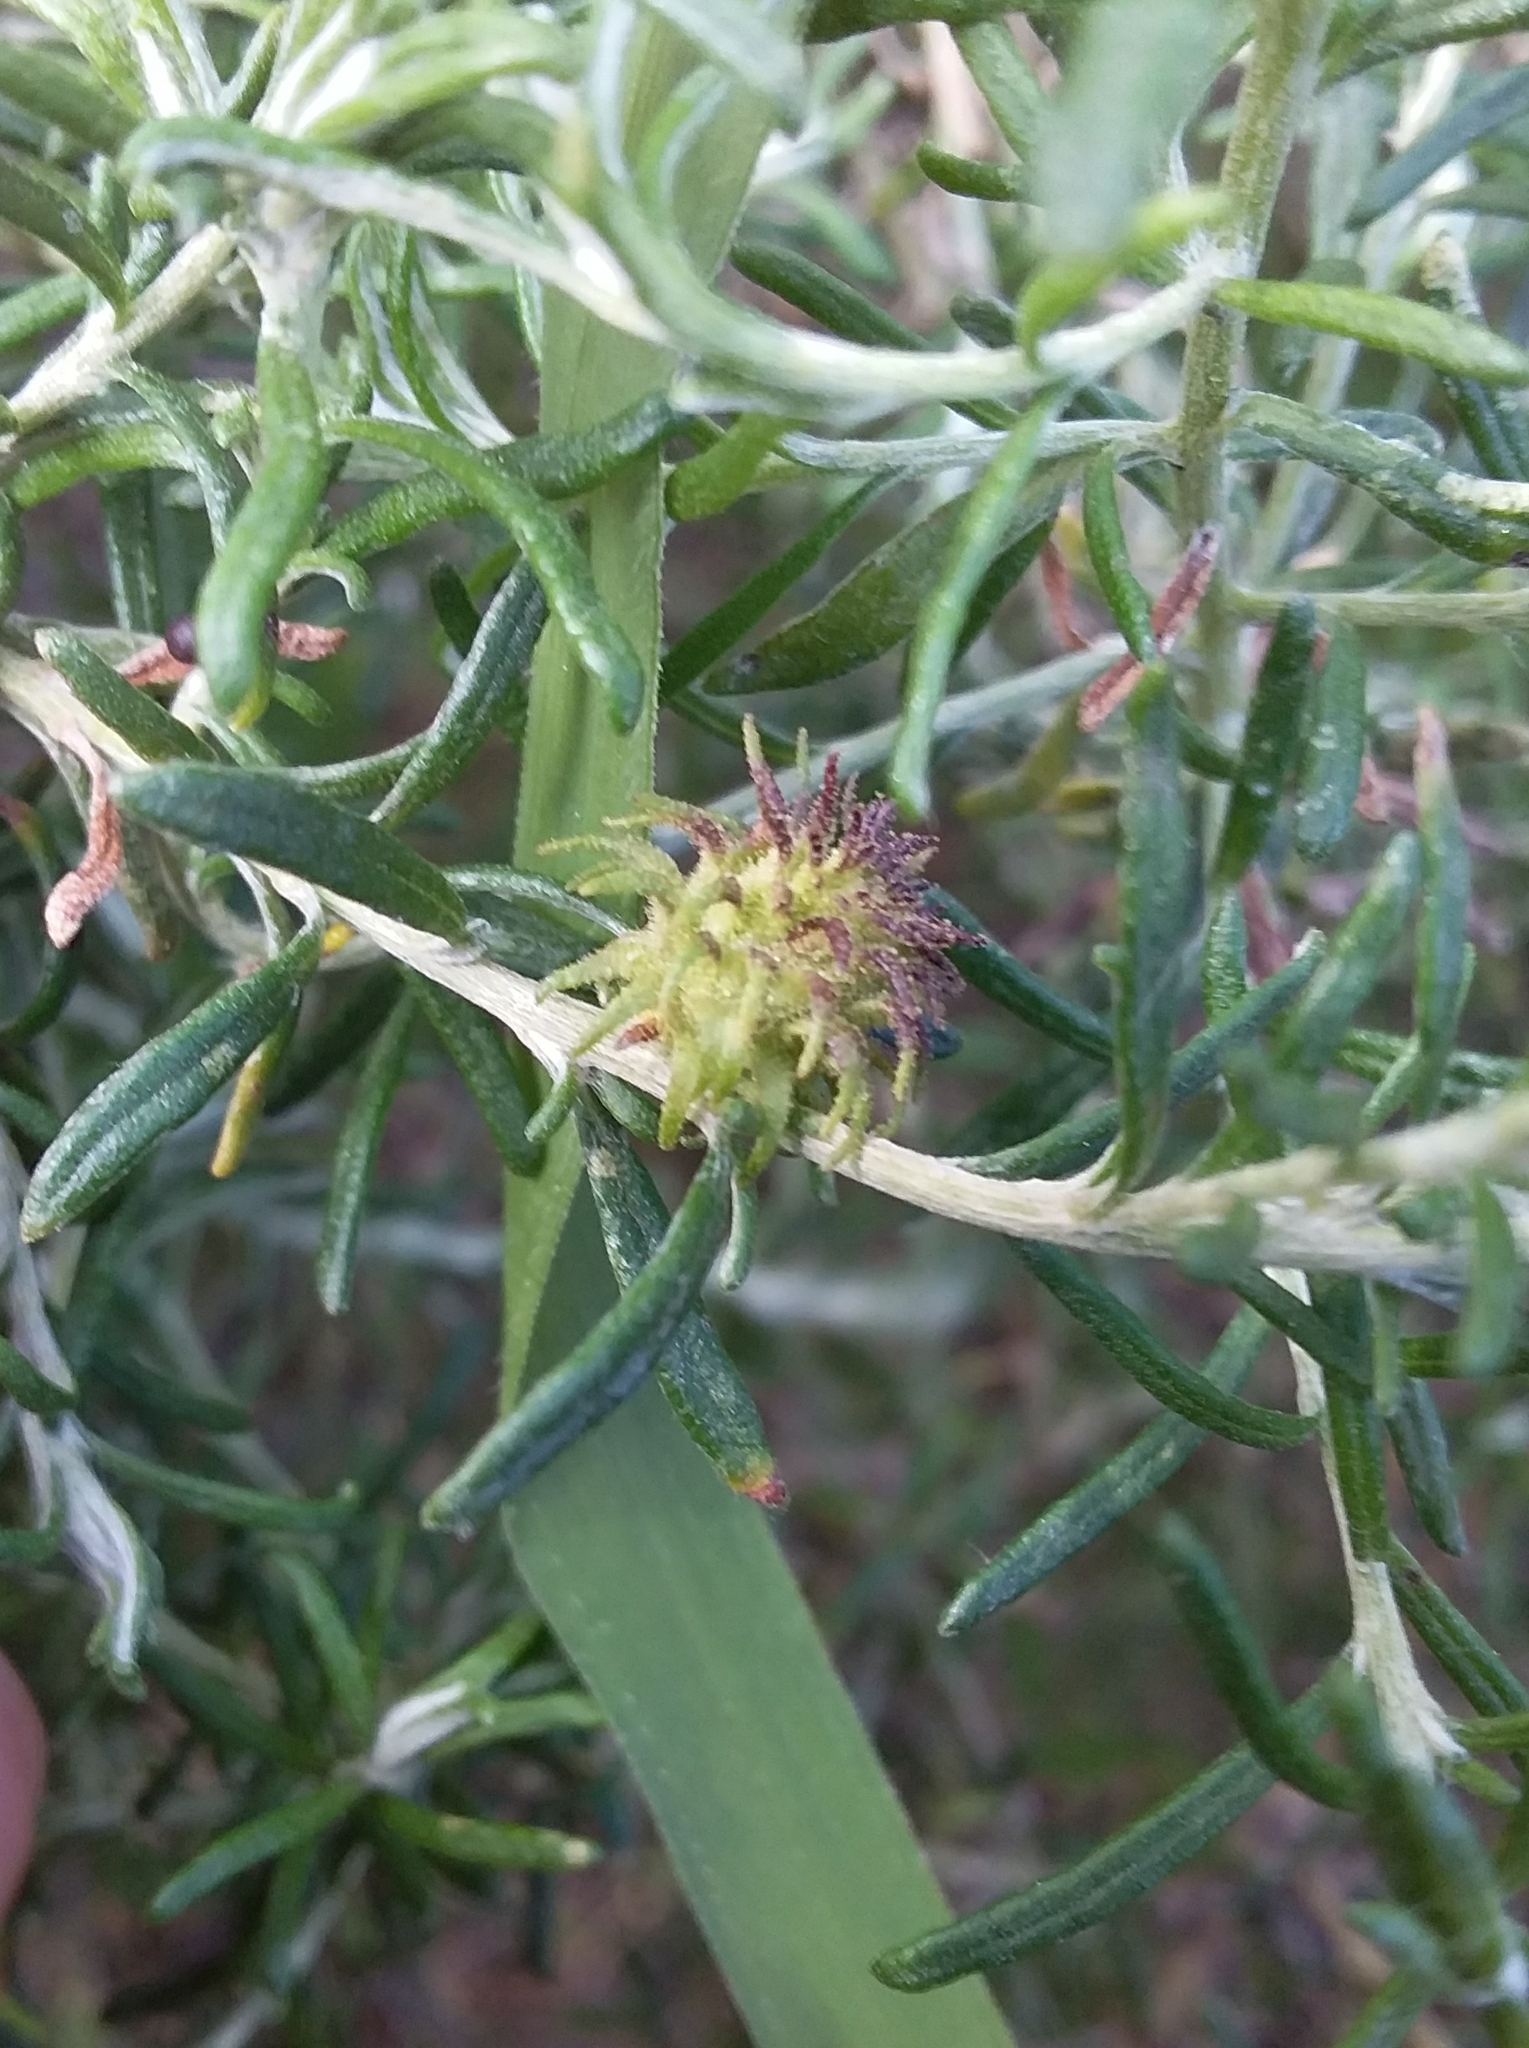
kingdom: Animalia
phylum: Arthropoda
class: Insecta
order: Diptera
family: Cecidomyiidae
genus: Trigonomyia
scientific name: Trigonomyia ananas
